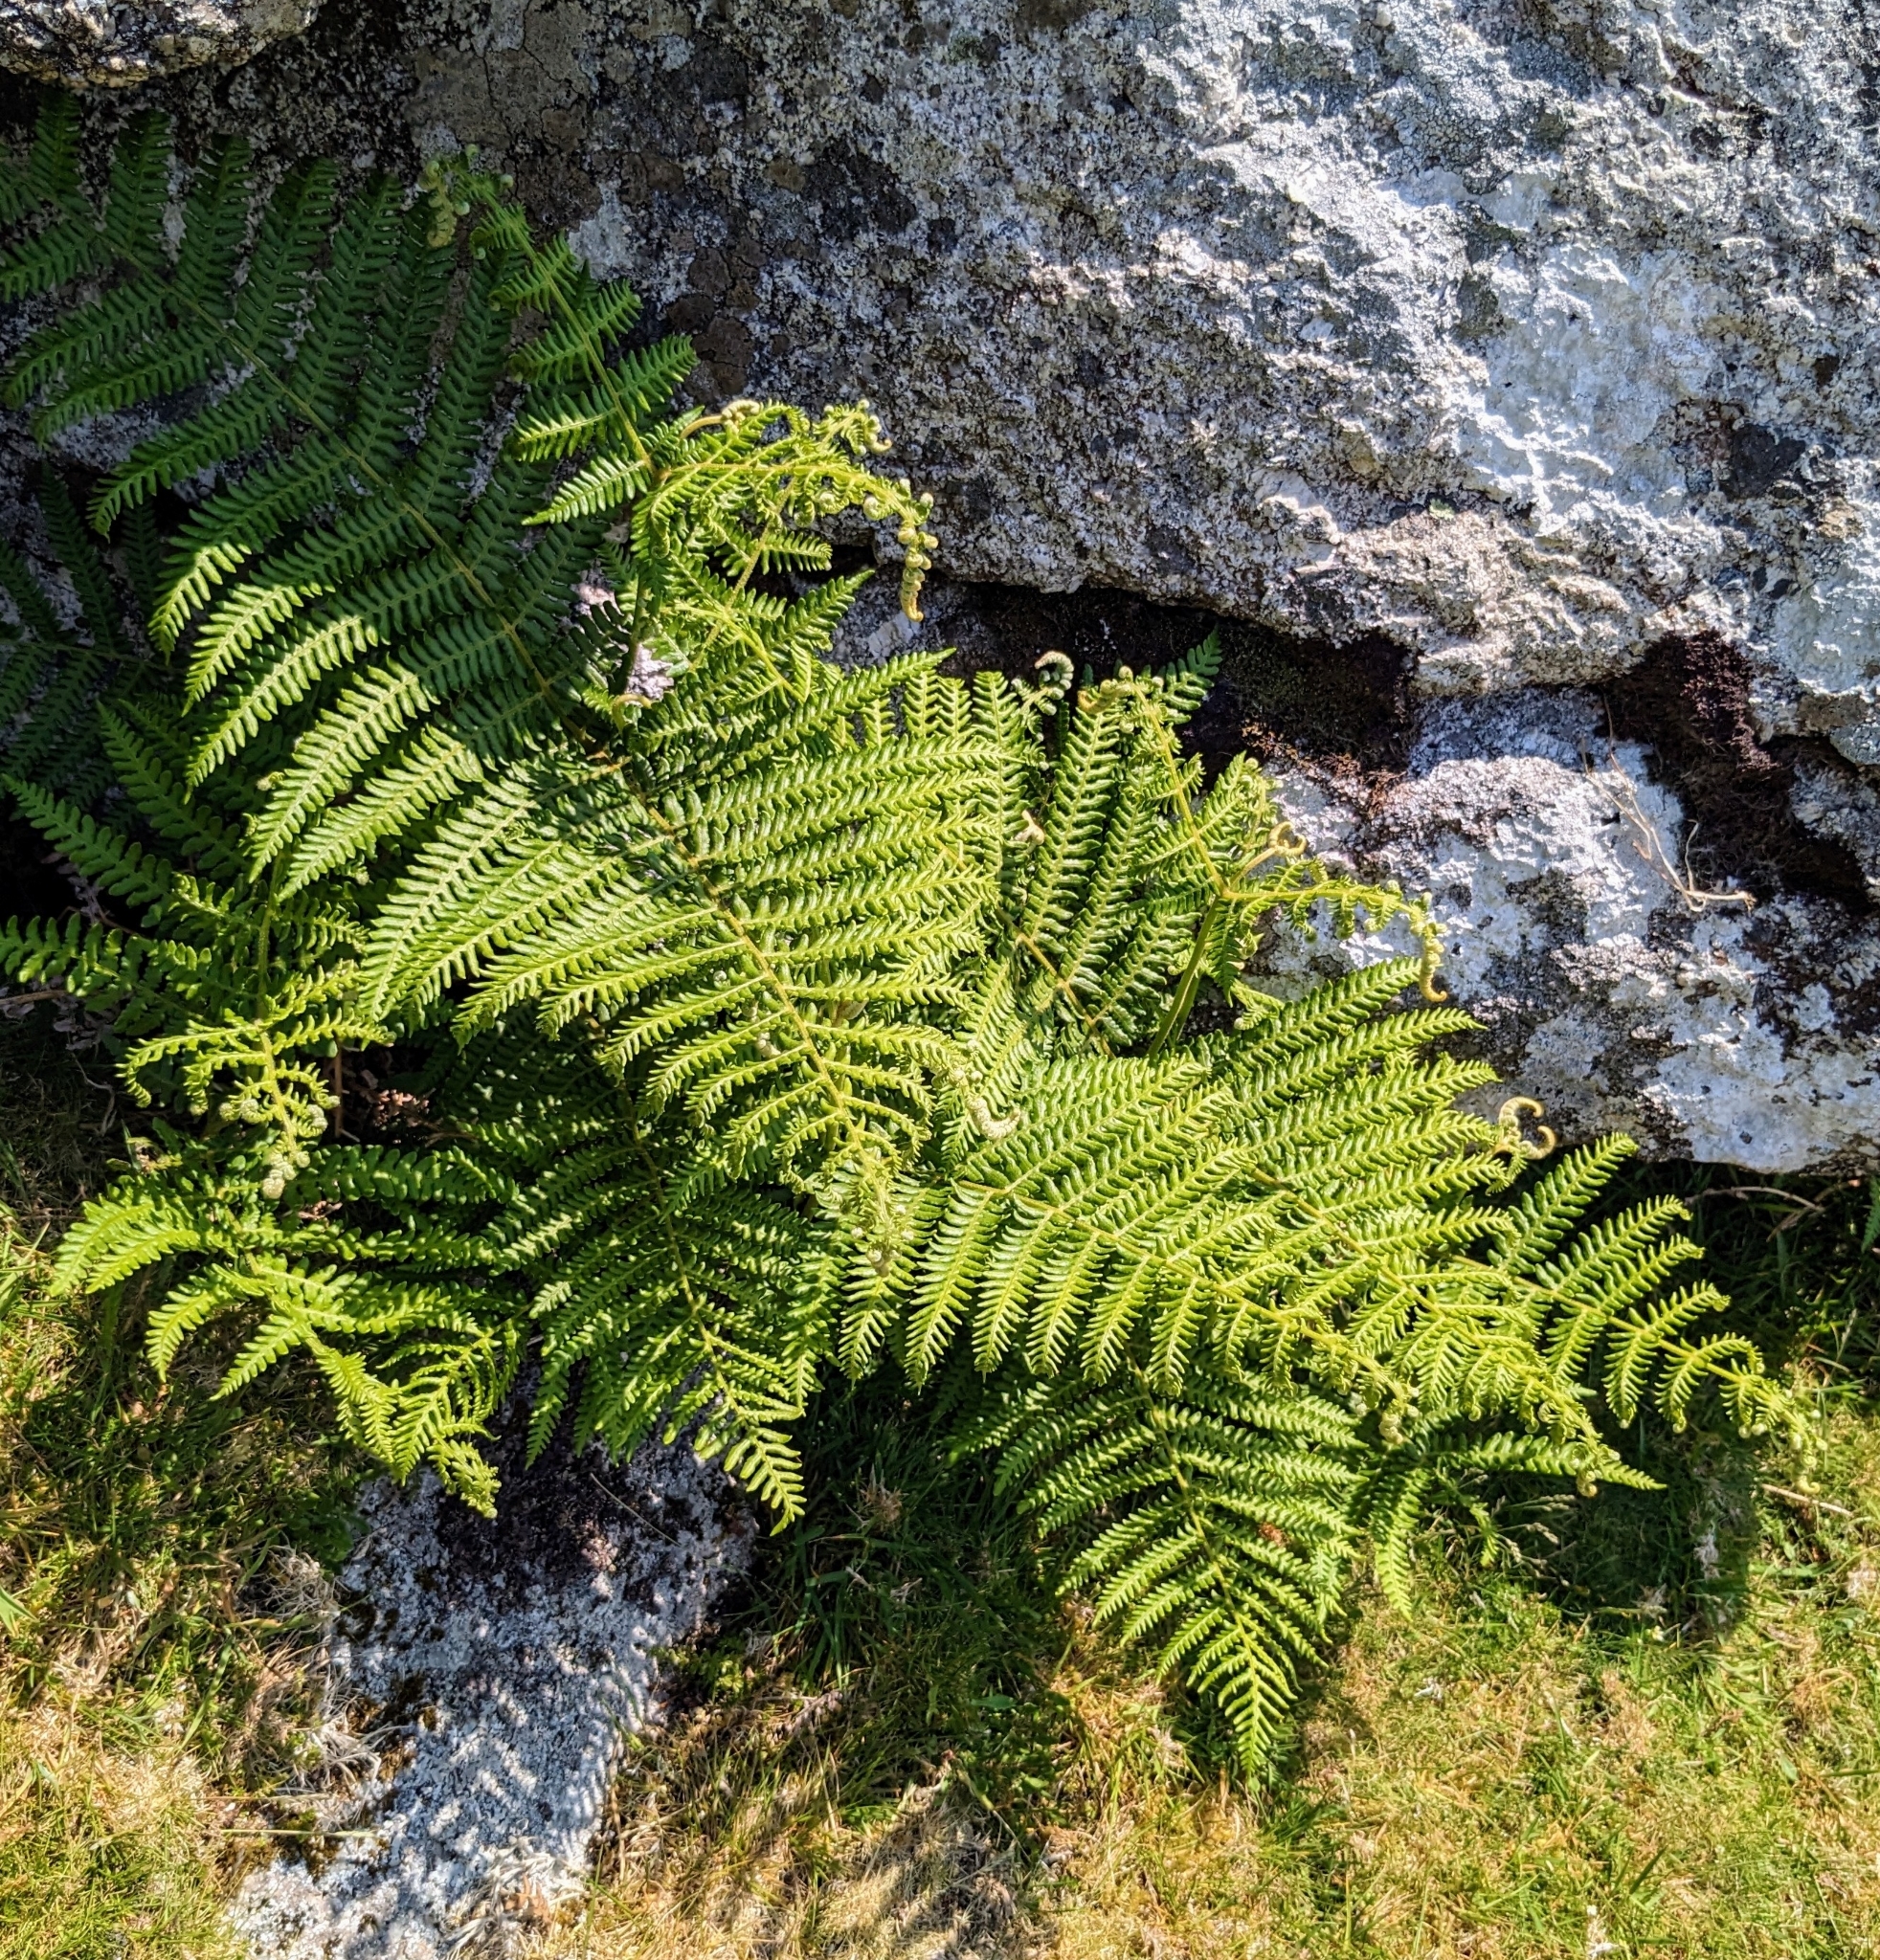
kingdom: Plantae
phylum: Tracheophyta
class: Polypodiopsida
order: Polypodiales
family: Dennstaedtiaceae
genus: Pteridium
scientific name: Pteridium aquilinum
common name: Bracken
